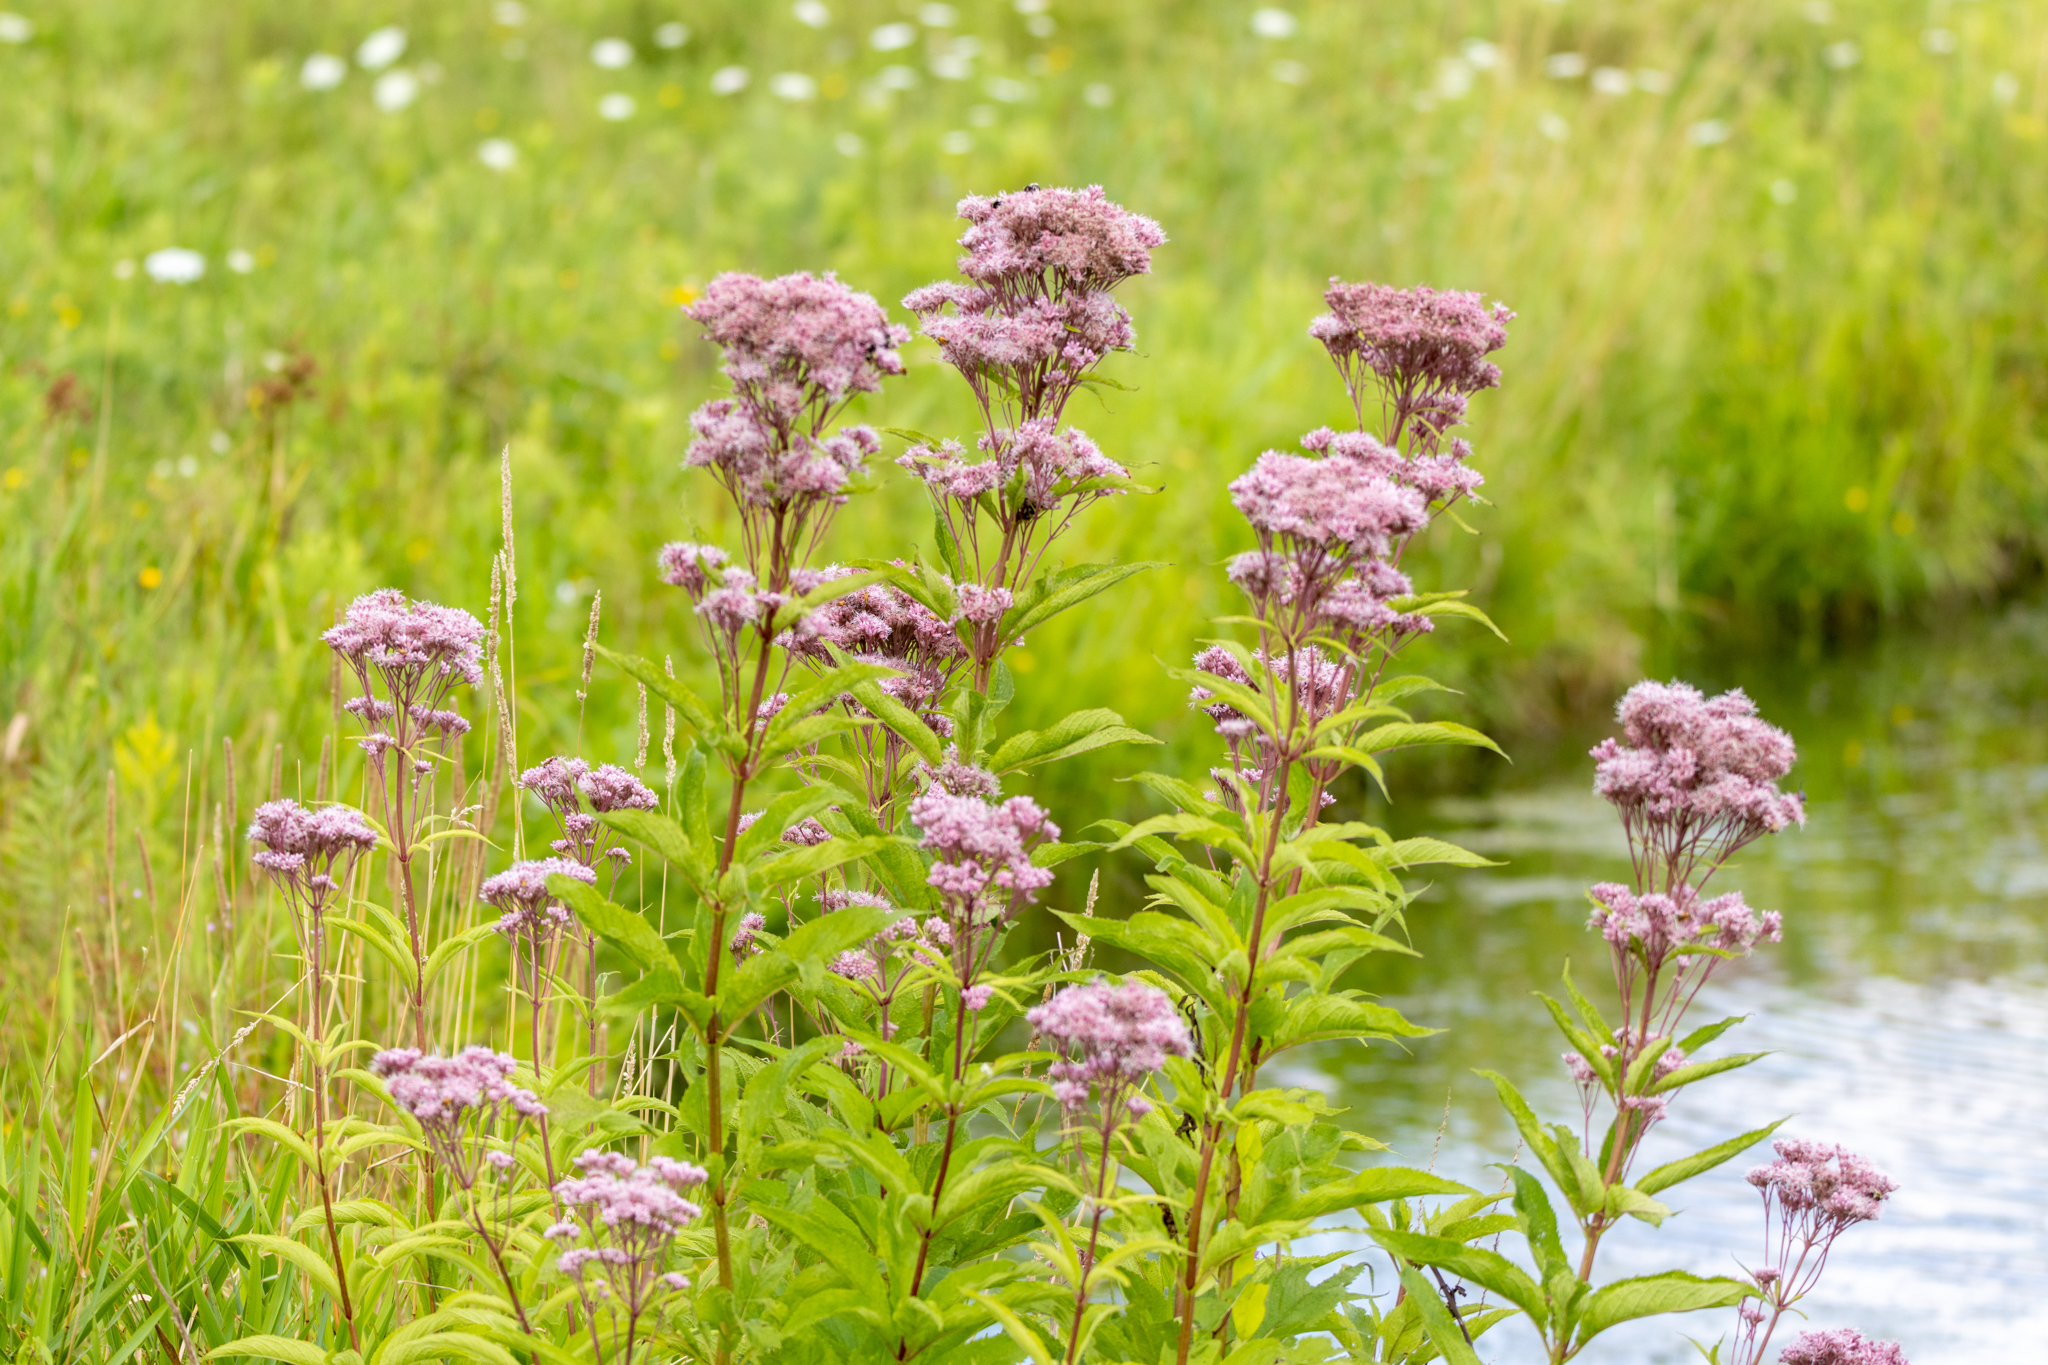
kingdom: Plantae
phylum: Tracheophyta
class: Magnoliopsida
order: Asterales
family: Asteraceae
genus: Eutrochium
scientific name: Eutrochium maculatum
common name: Spotted joe pye weed
